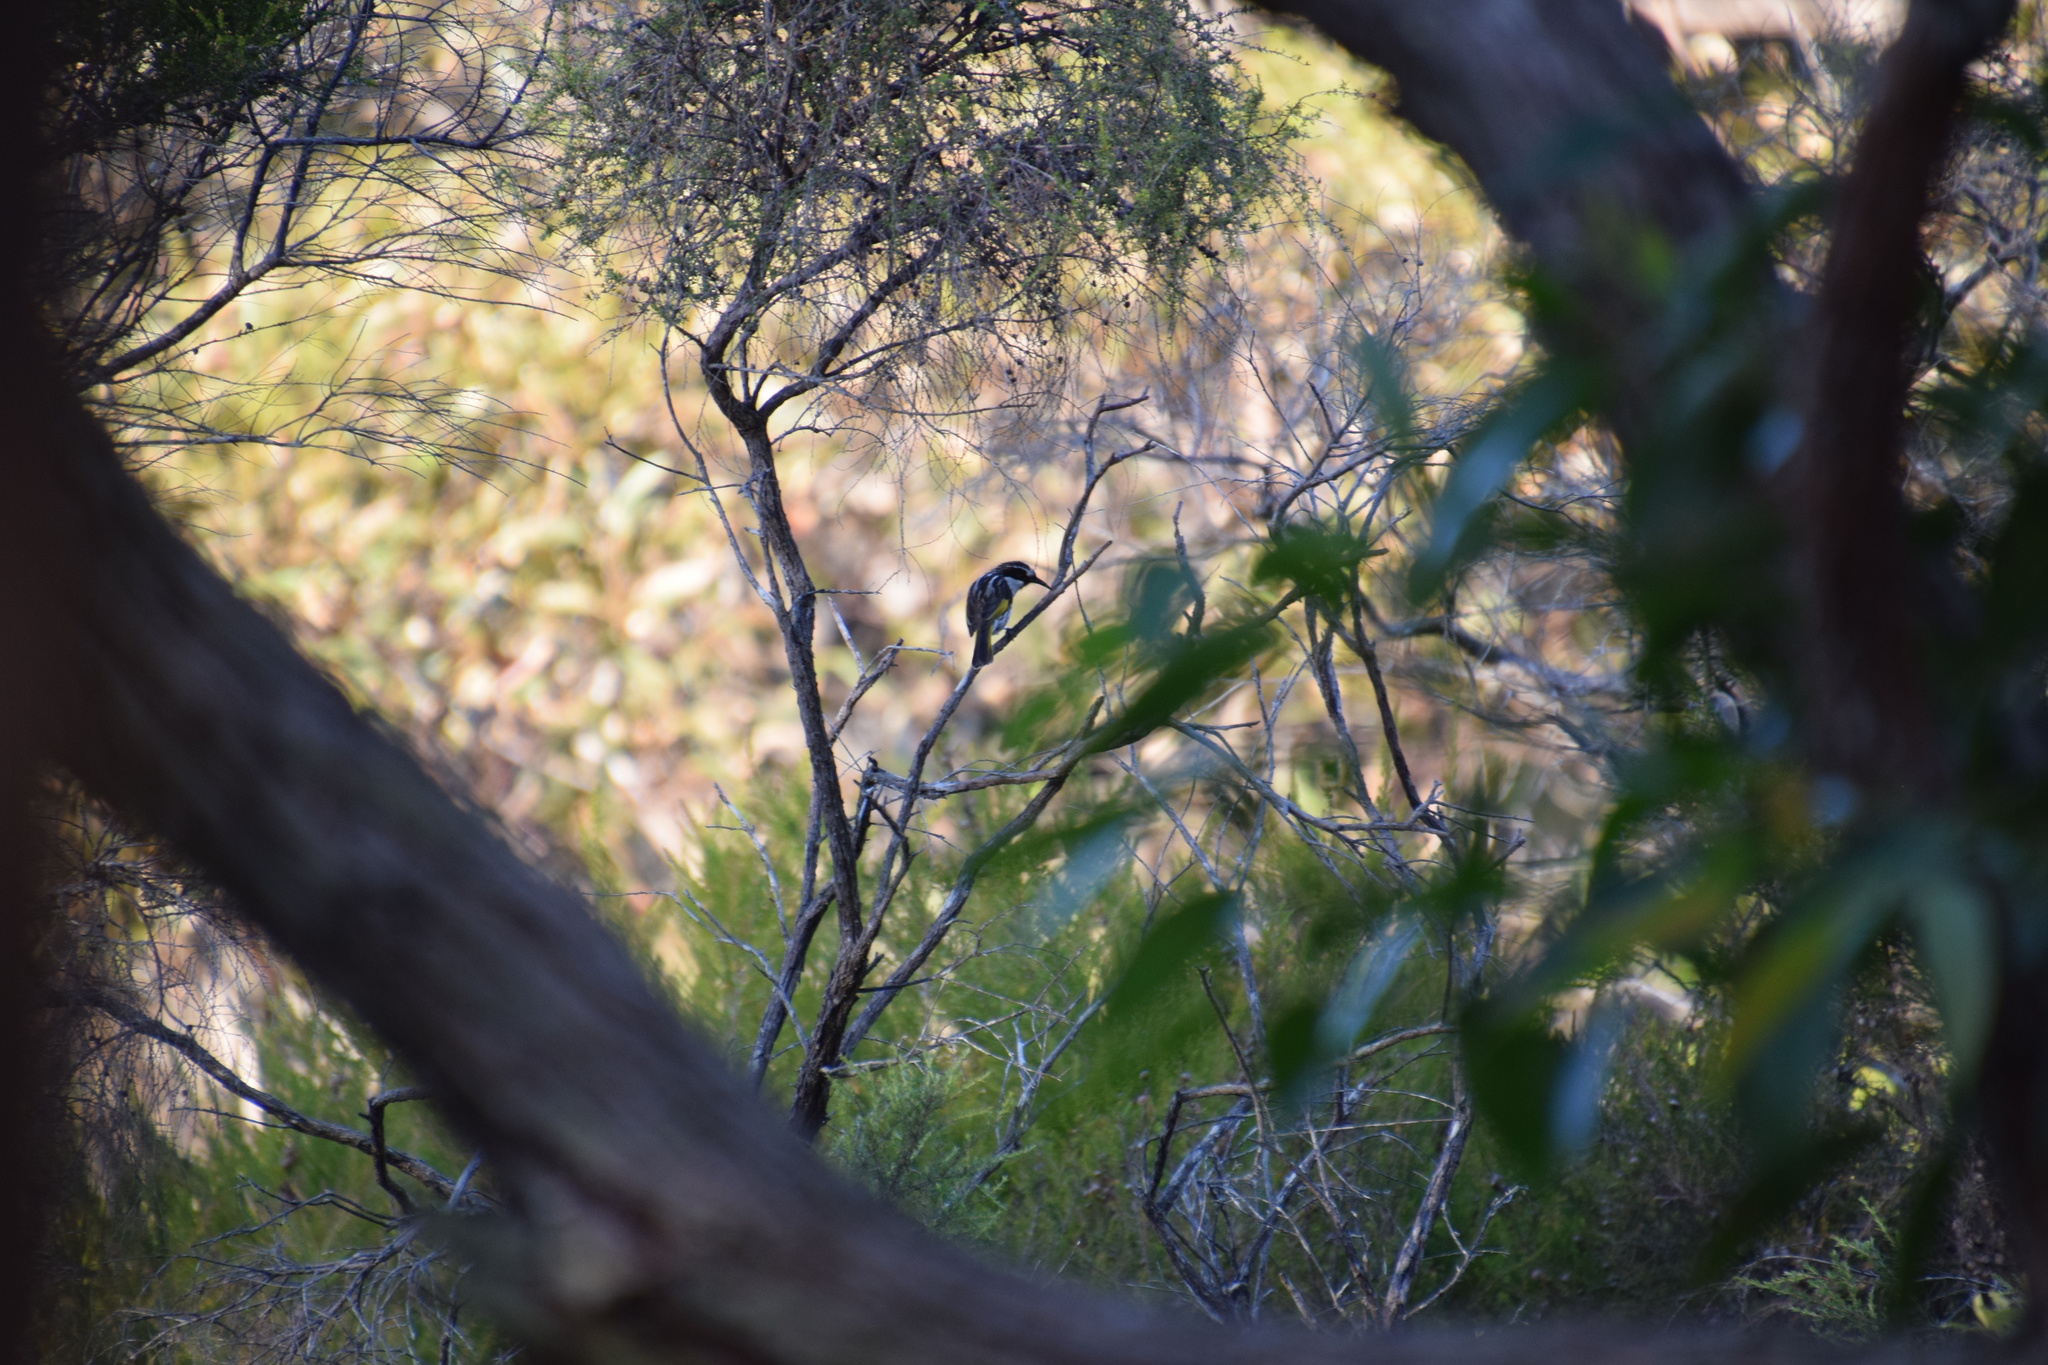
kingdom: Animalia
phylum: Chordata
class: Aves
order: Passeriformes
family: Meliphagidae
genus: Phylidonyris
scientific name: Phylidonyris niger
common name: White-cheeked honeyeater
